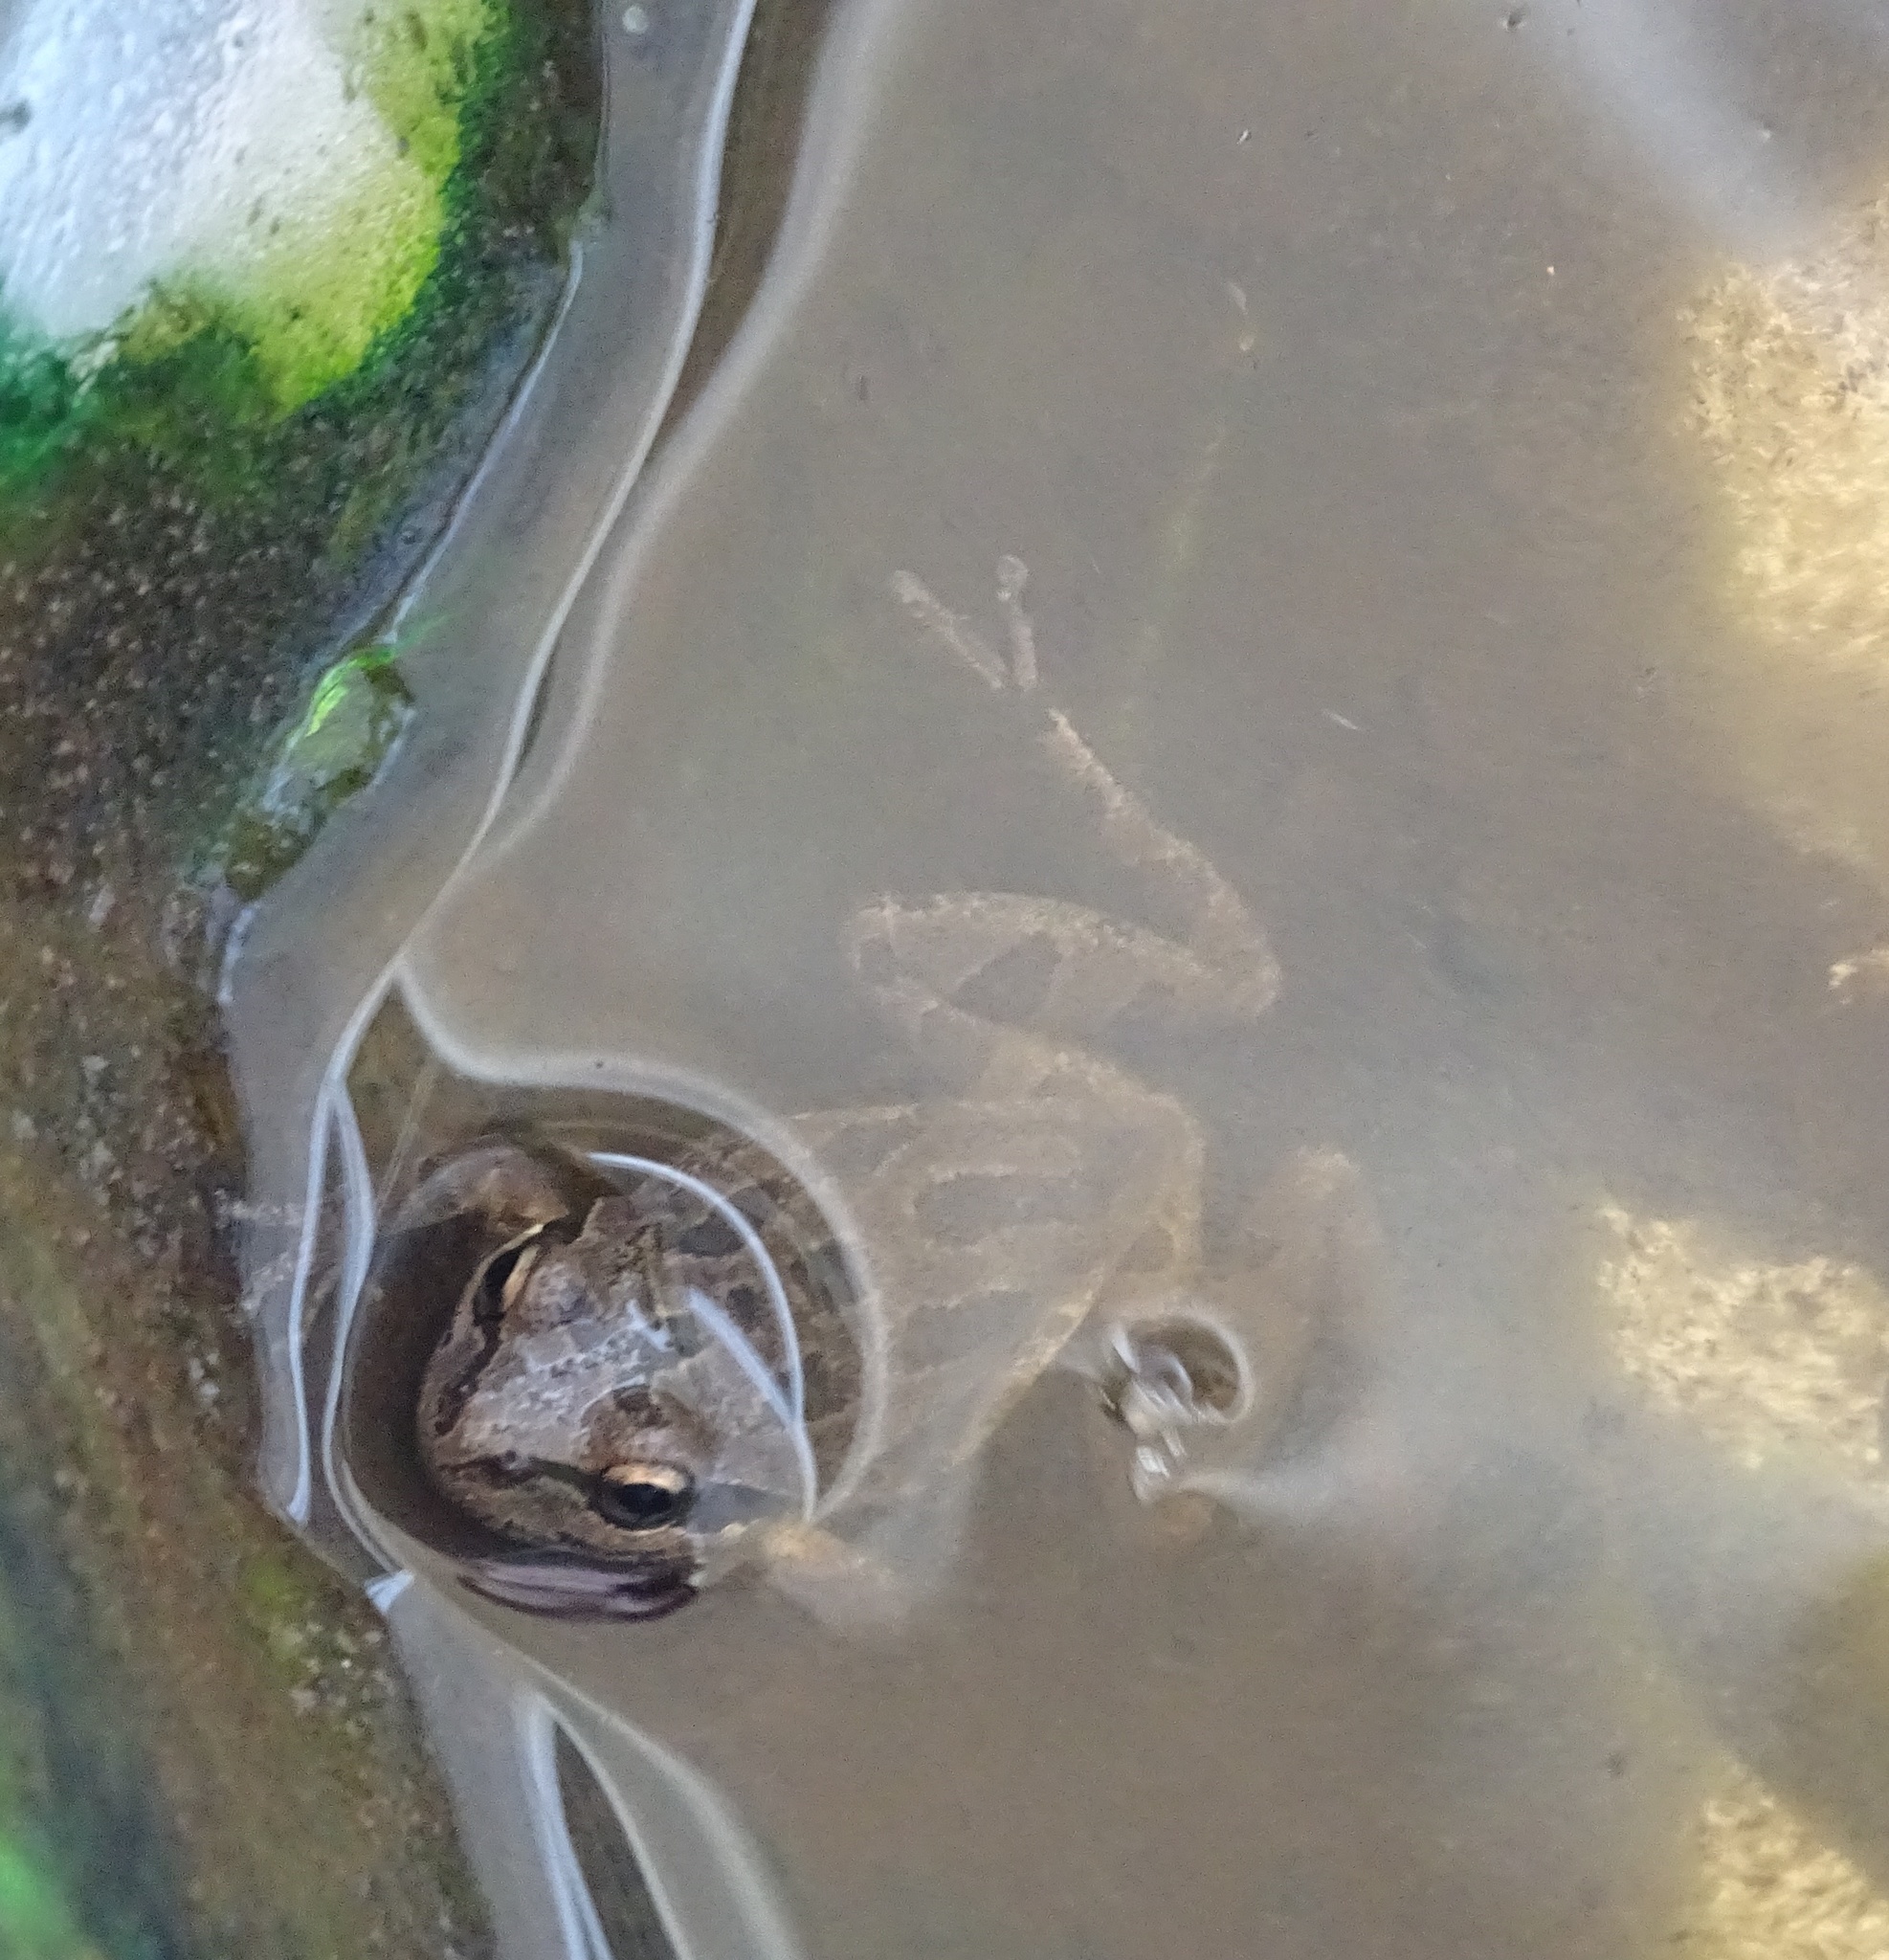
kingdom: Animalia
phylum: Chordata
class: Amphibia
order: Anura
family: Hylidae
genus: Pseudacris
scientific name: Pseudacris regilla
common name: Pacific chorus frog
